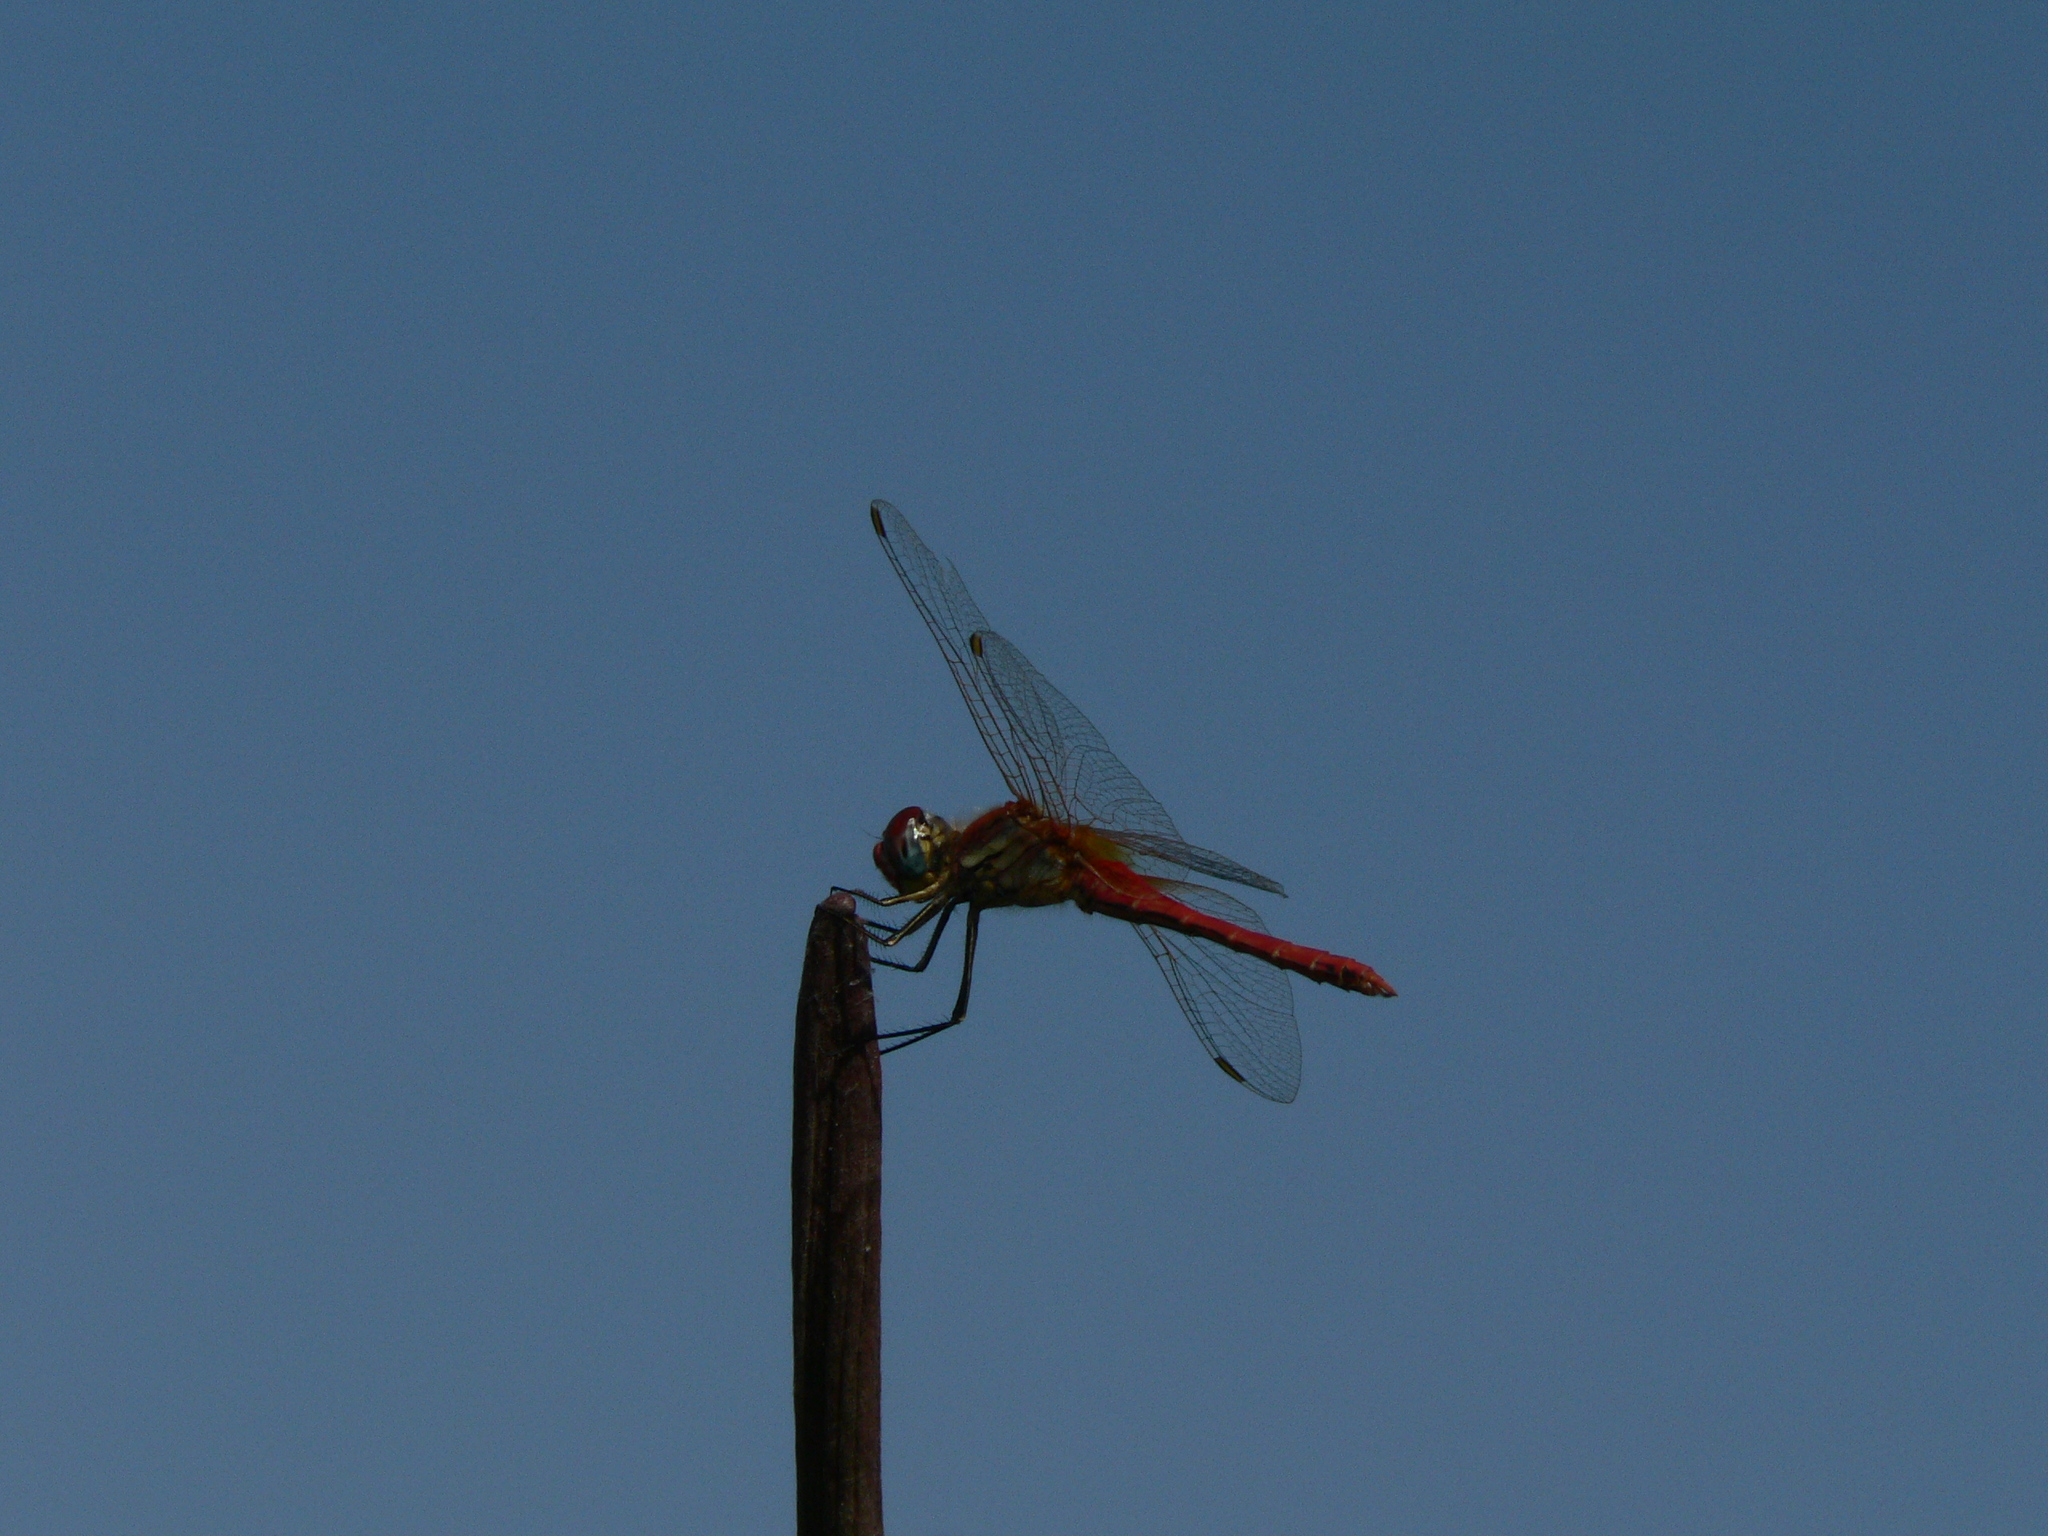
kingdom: Animalia
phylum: Arthropoda
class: Insecta
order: Odonata
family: Libellulidae
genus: Sympetrum
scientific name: Sympetrum fonscolombii
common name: Red-veined darter
